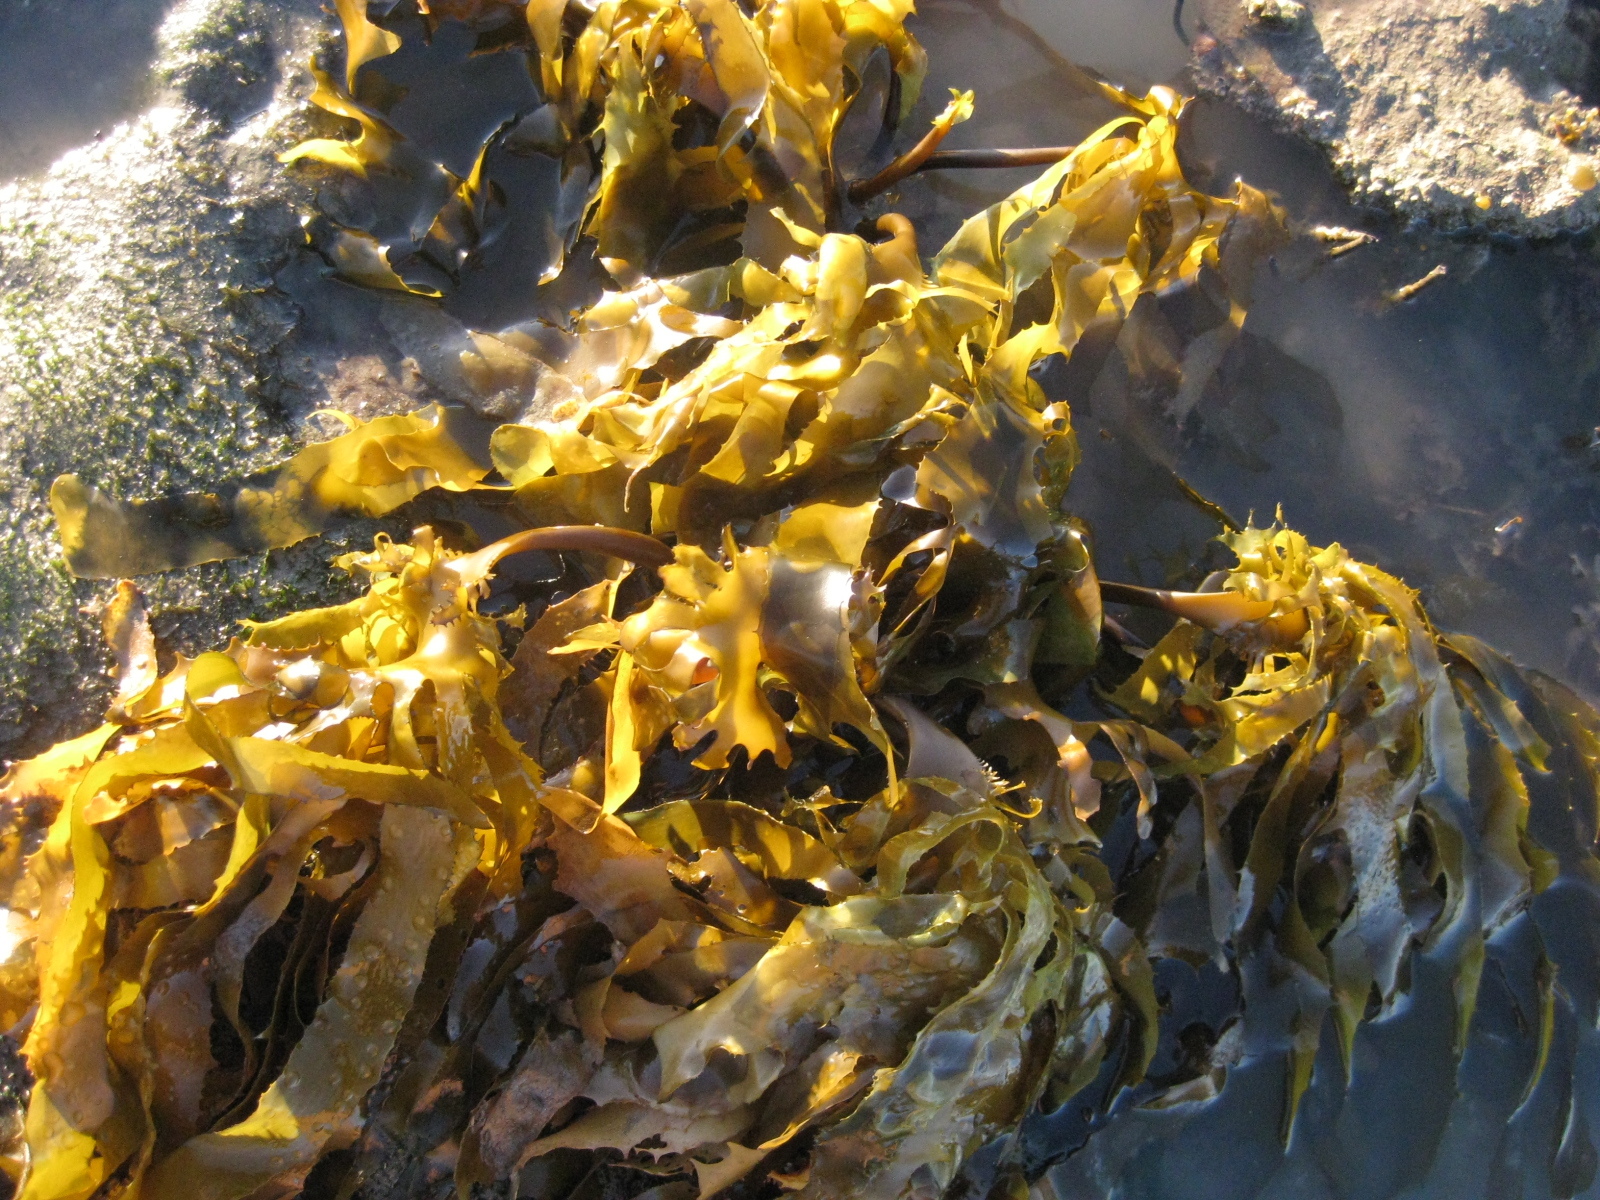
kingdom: Chromista
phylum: Ochrophyta
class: Phaeophyceae
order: Laminariales
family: Lessoniaceae
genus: Ecklonia
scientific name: Ecklonia radiata
